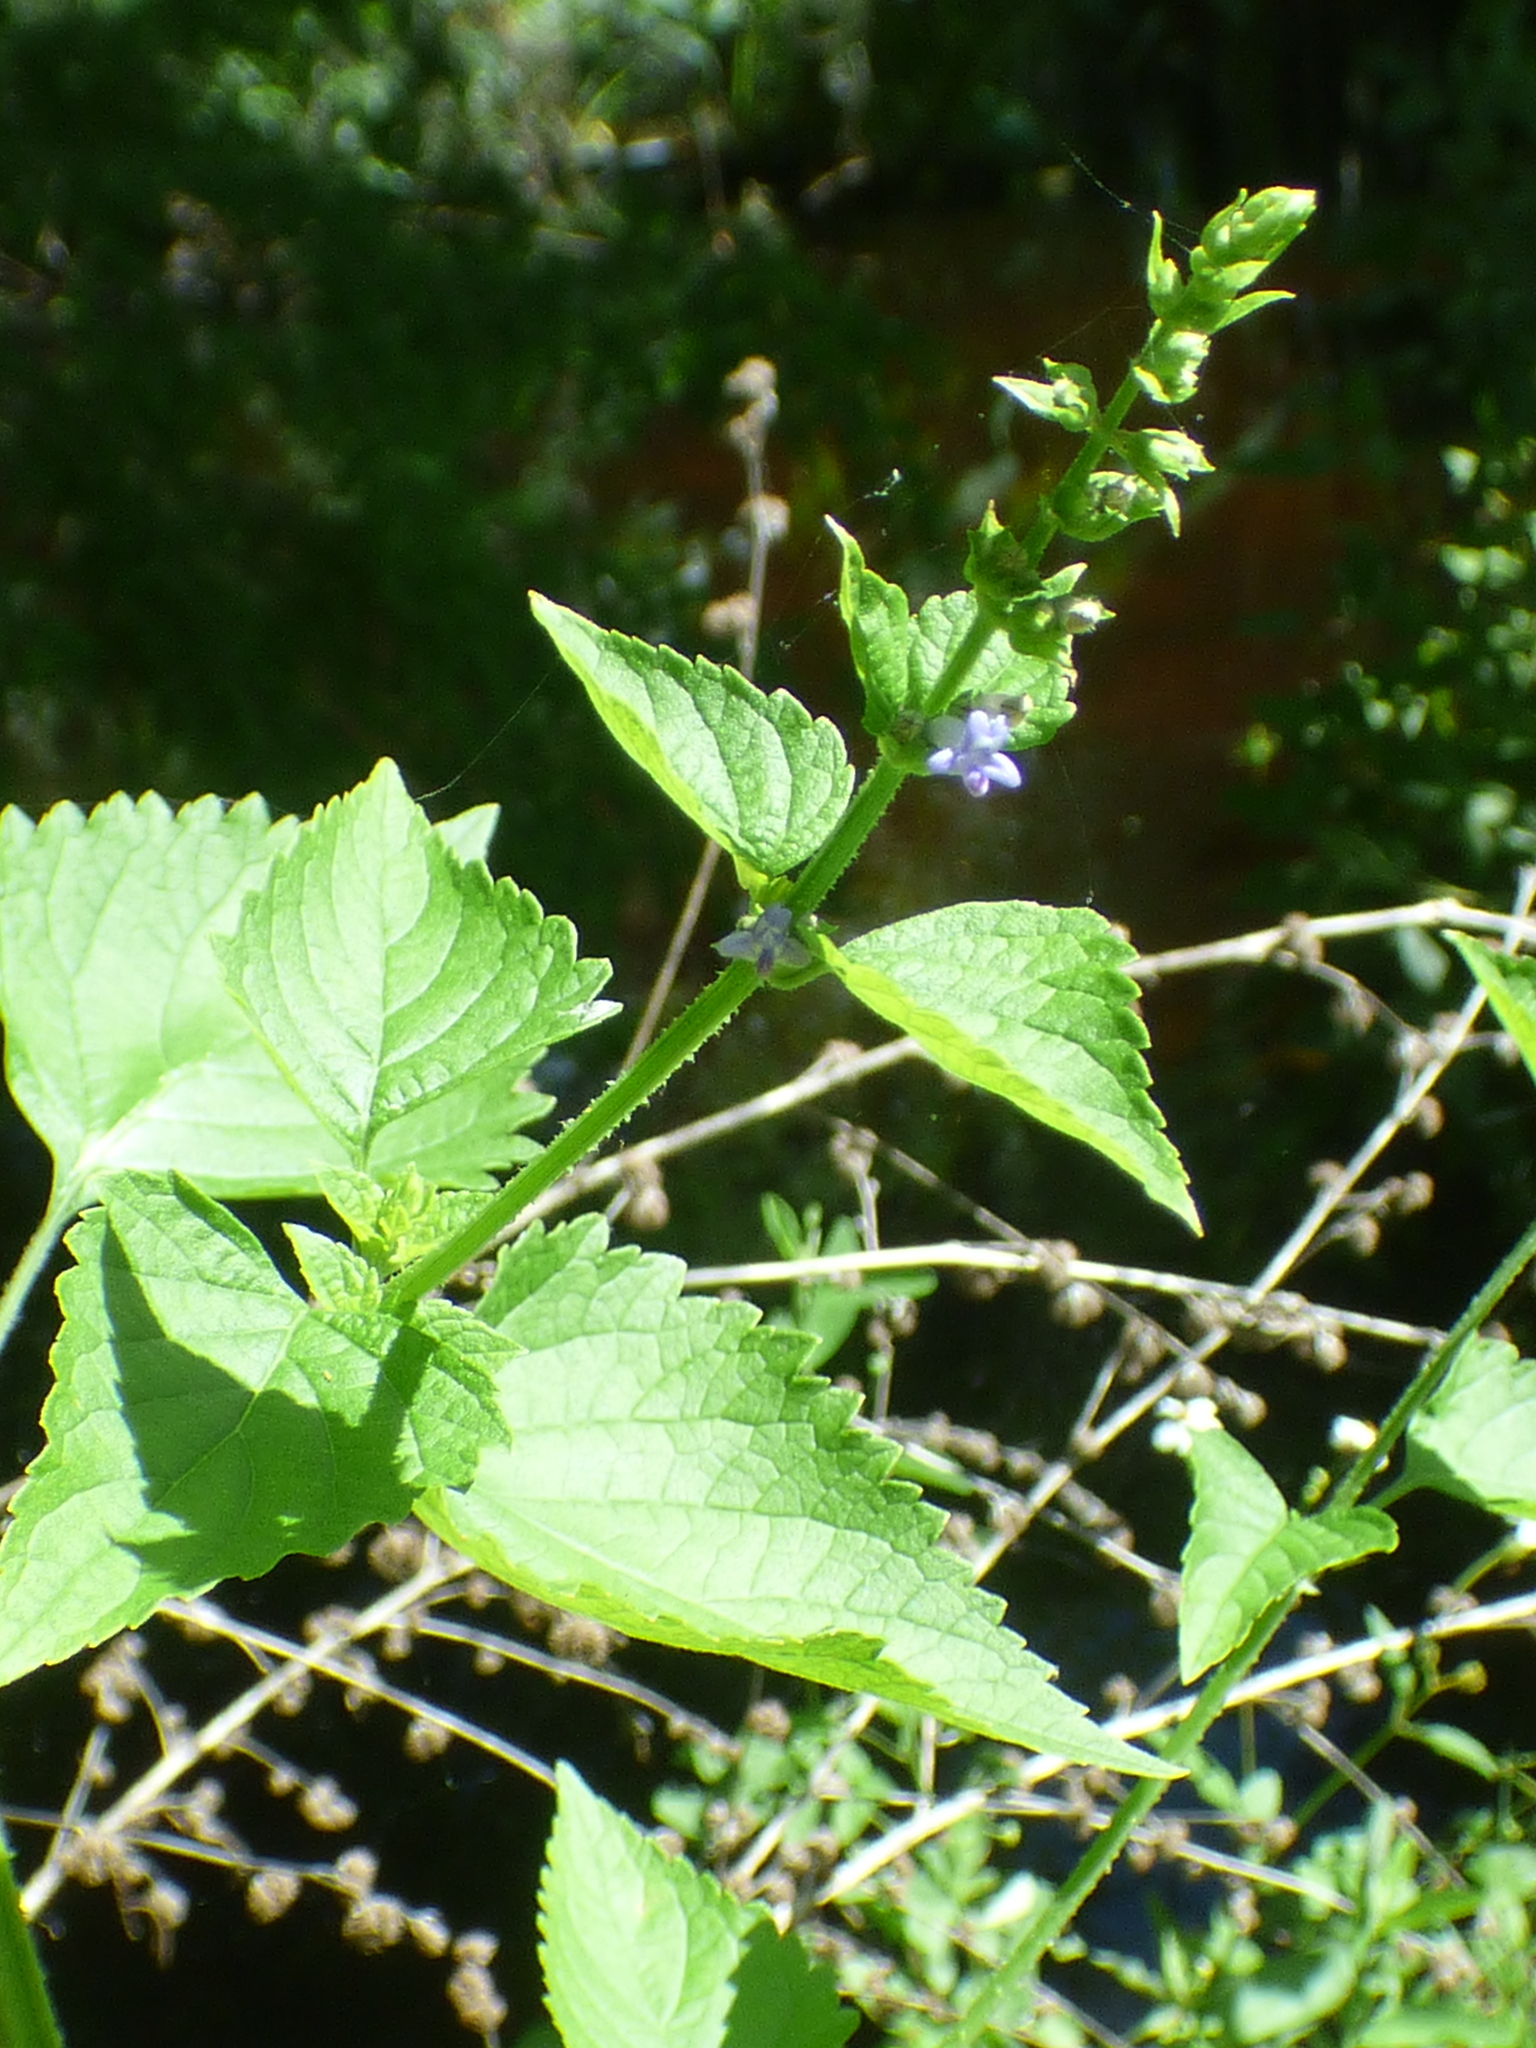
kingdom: Plantae
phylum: Tracheophyta
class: Magnoliopsida
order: Lamiales
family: Lamiaceae
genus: Cantinoa
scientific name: Cantinoa mutabilis
